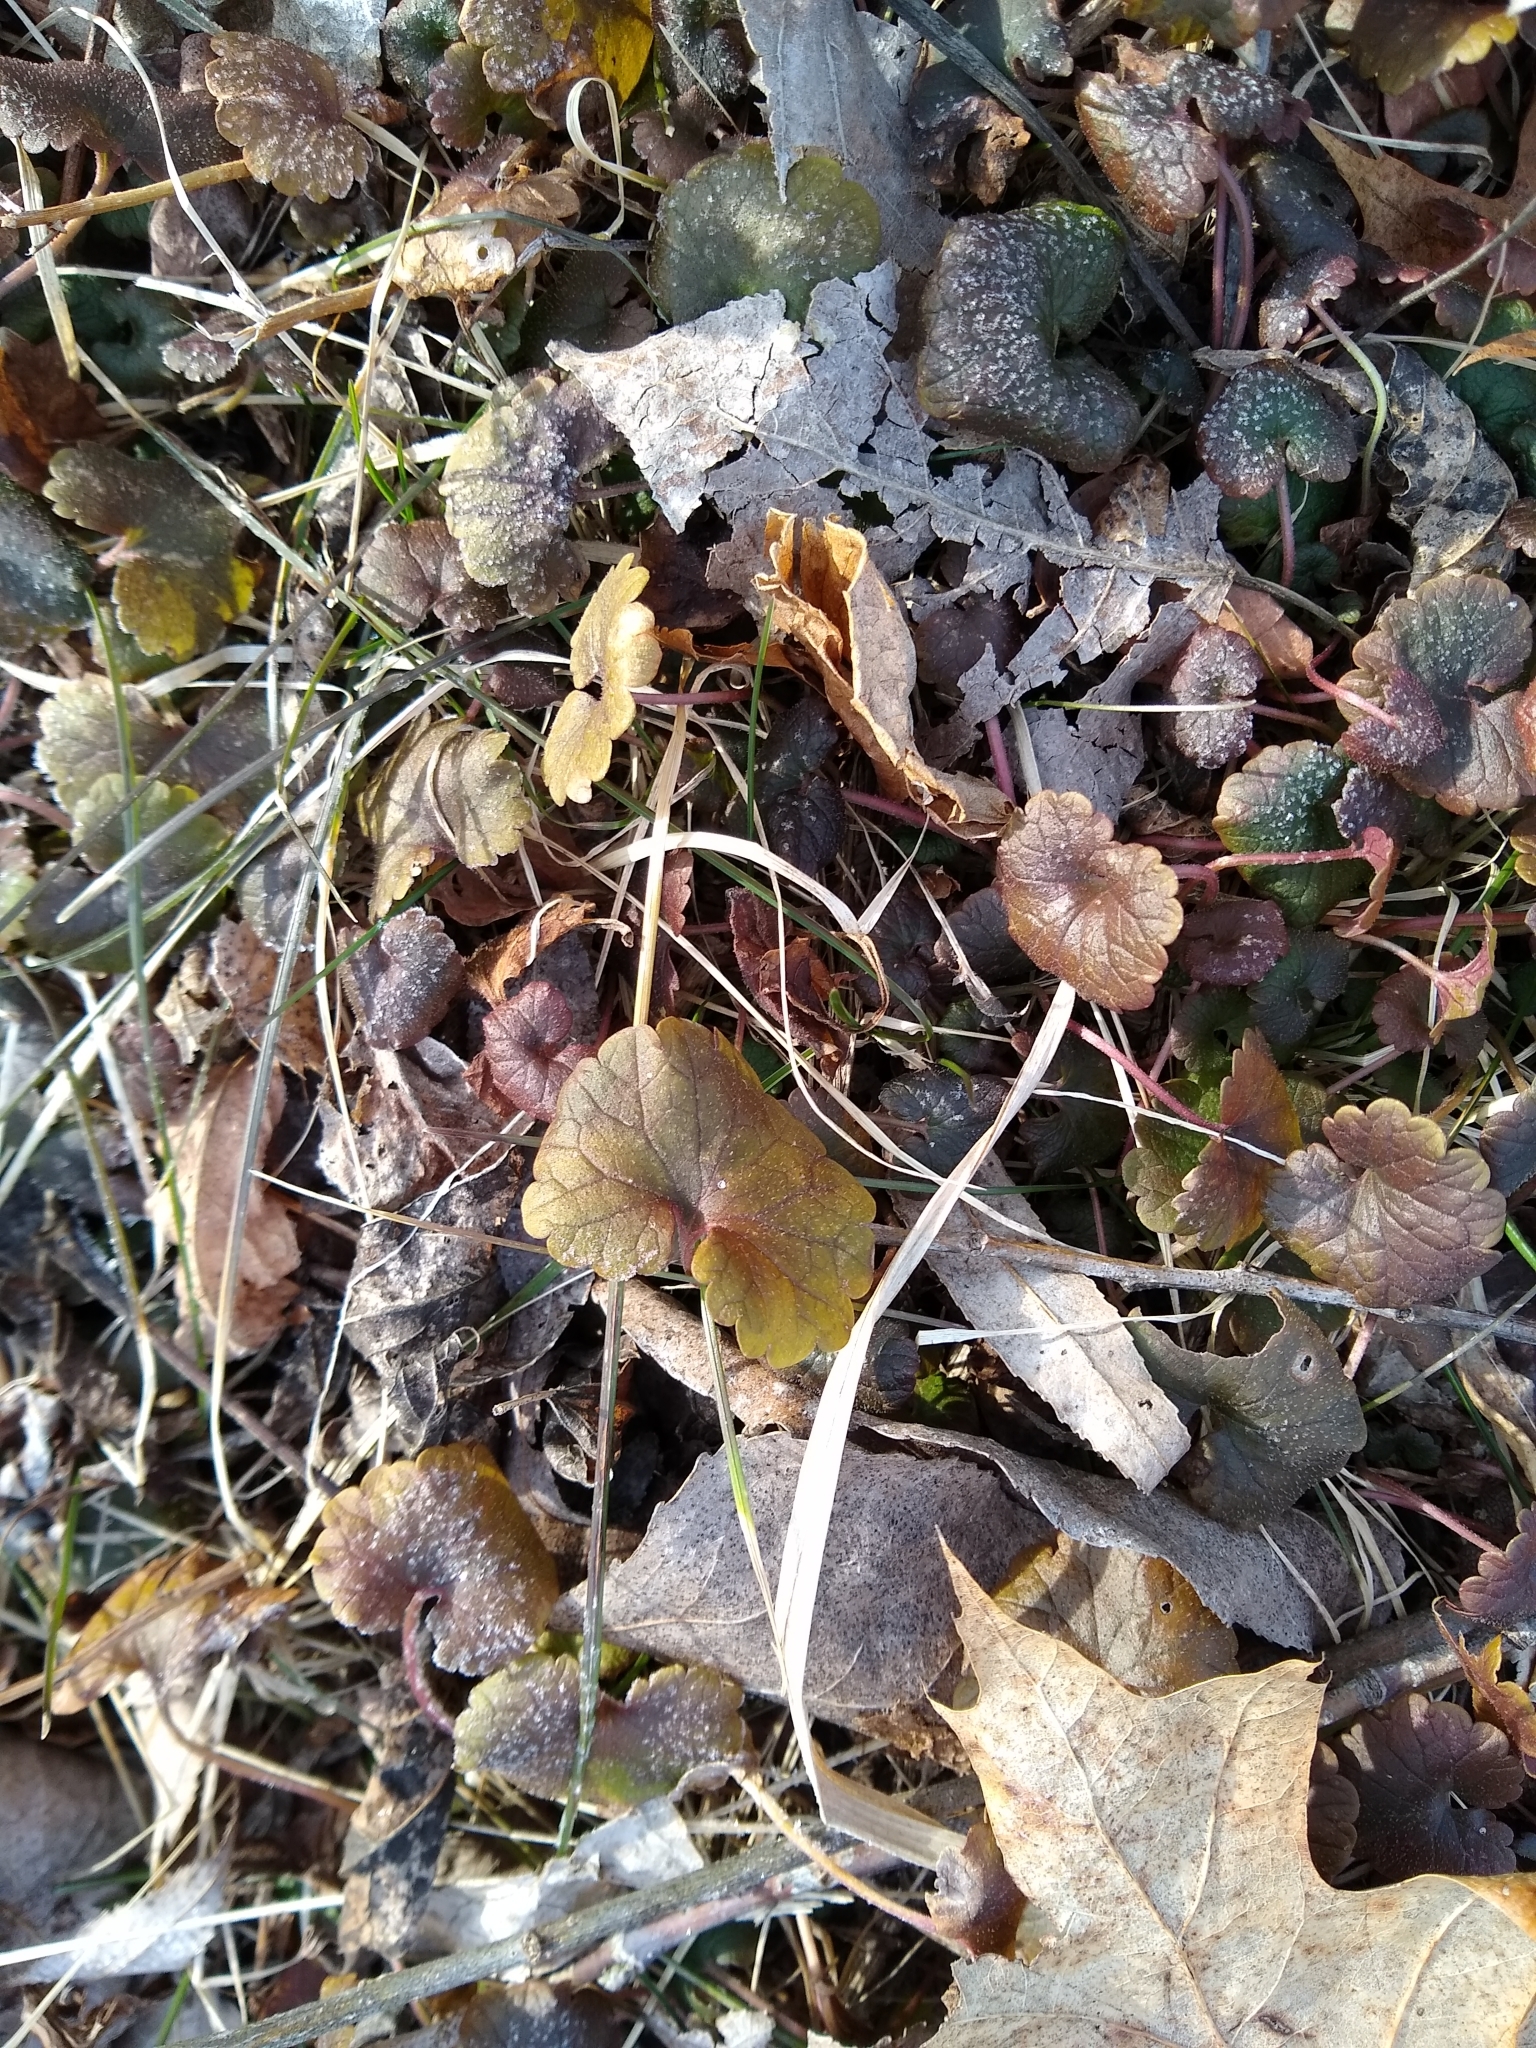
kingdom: Plantae
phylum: Tracheophyta
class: Magnoliopsida
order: Lamiales
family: Lamiaceae
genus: Glechoma
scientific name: Glechoma hederacea
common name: Ground ivy
